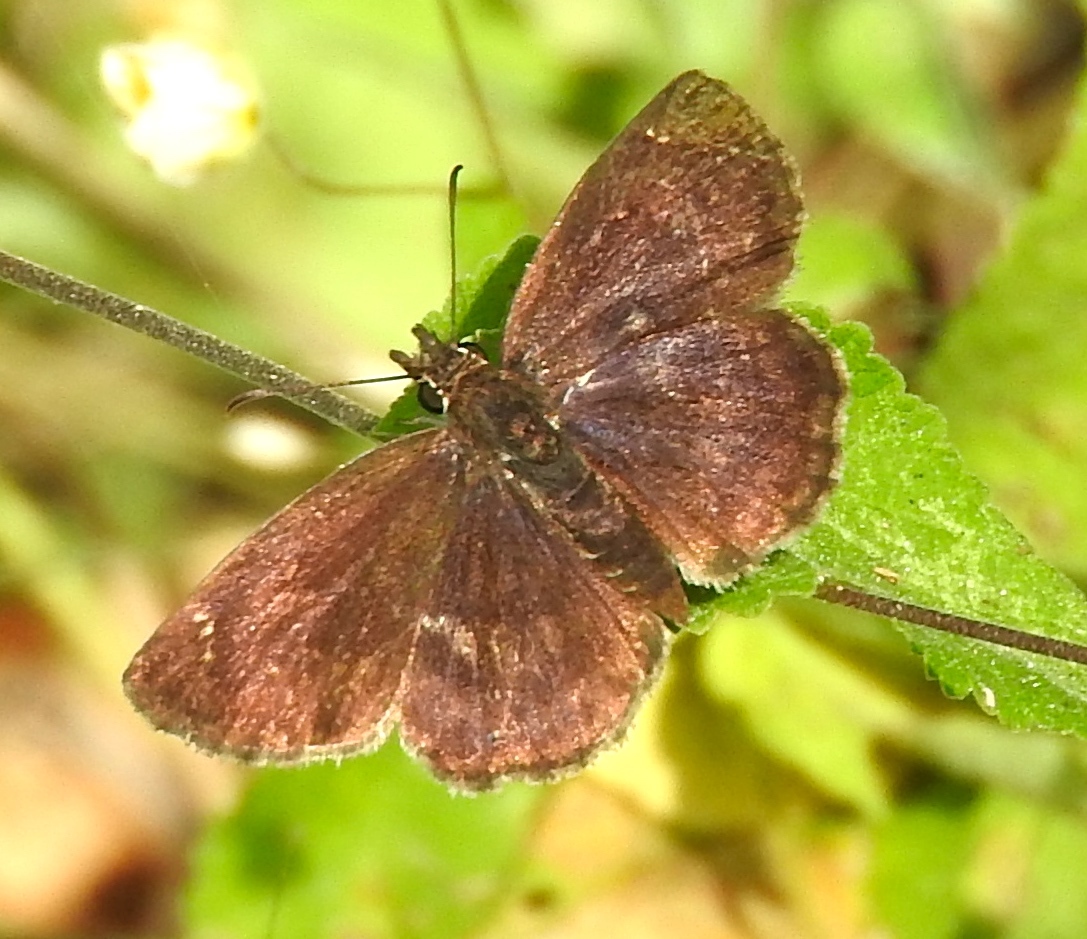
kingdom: Animalia
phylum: Arthropoda
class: Insecta
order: Lepidoptera
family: Hesperiidae
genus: Zopyrion
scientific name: Zopyrion sandace
